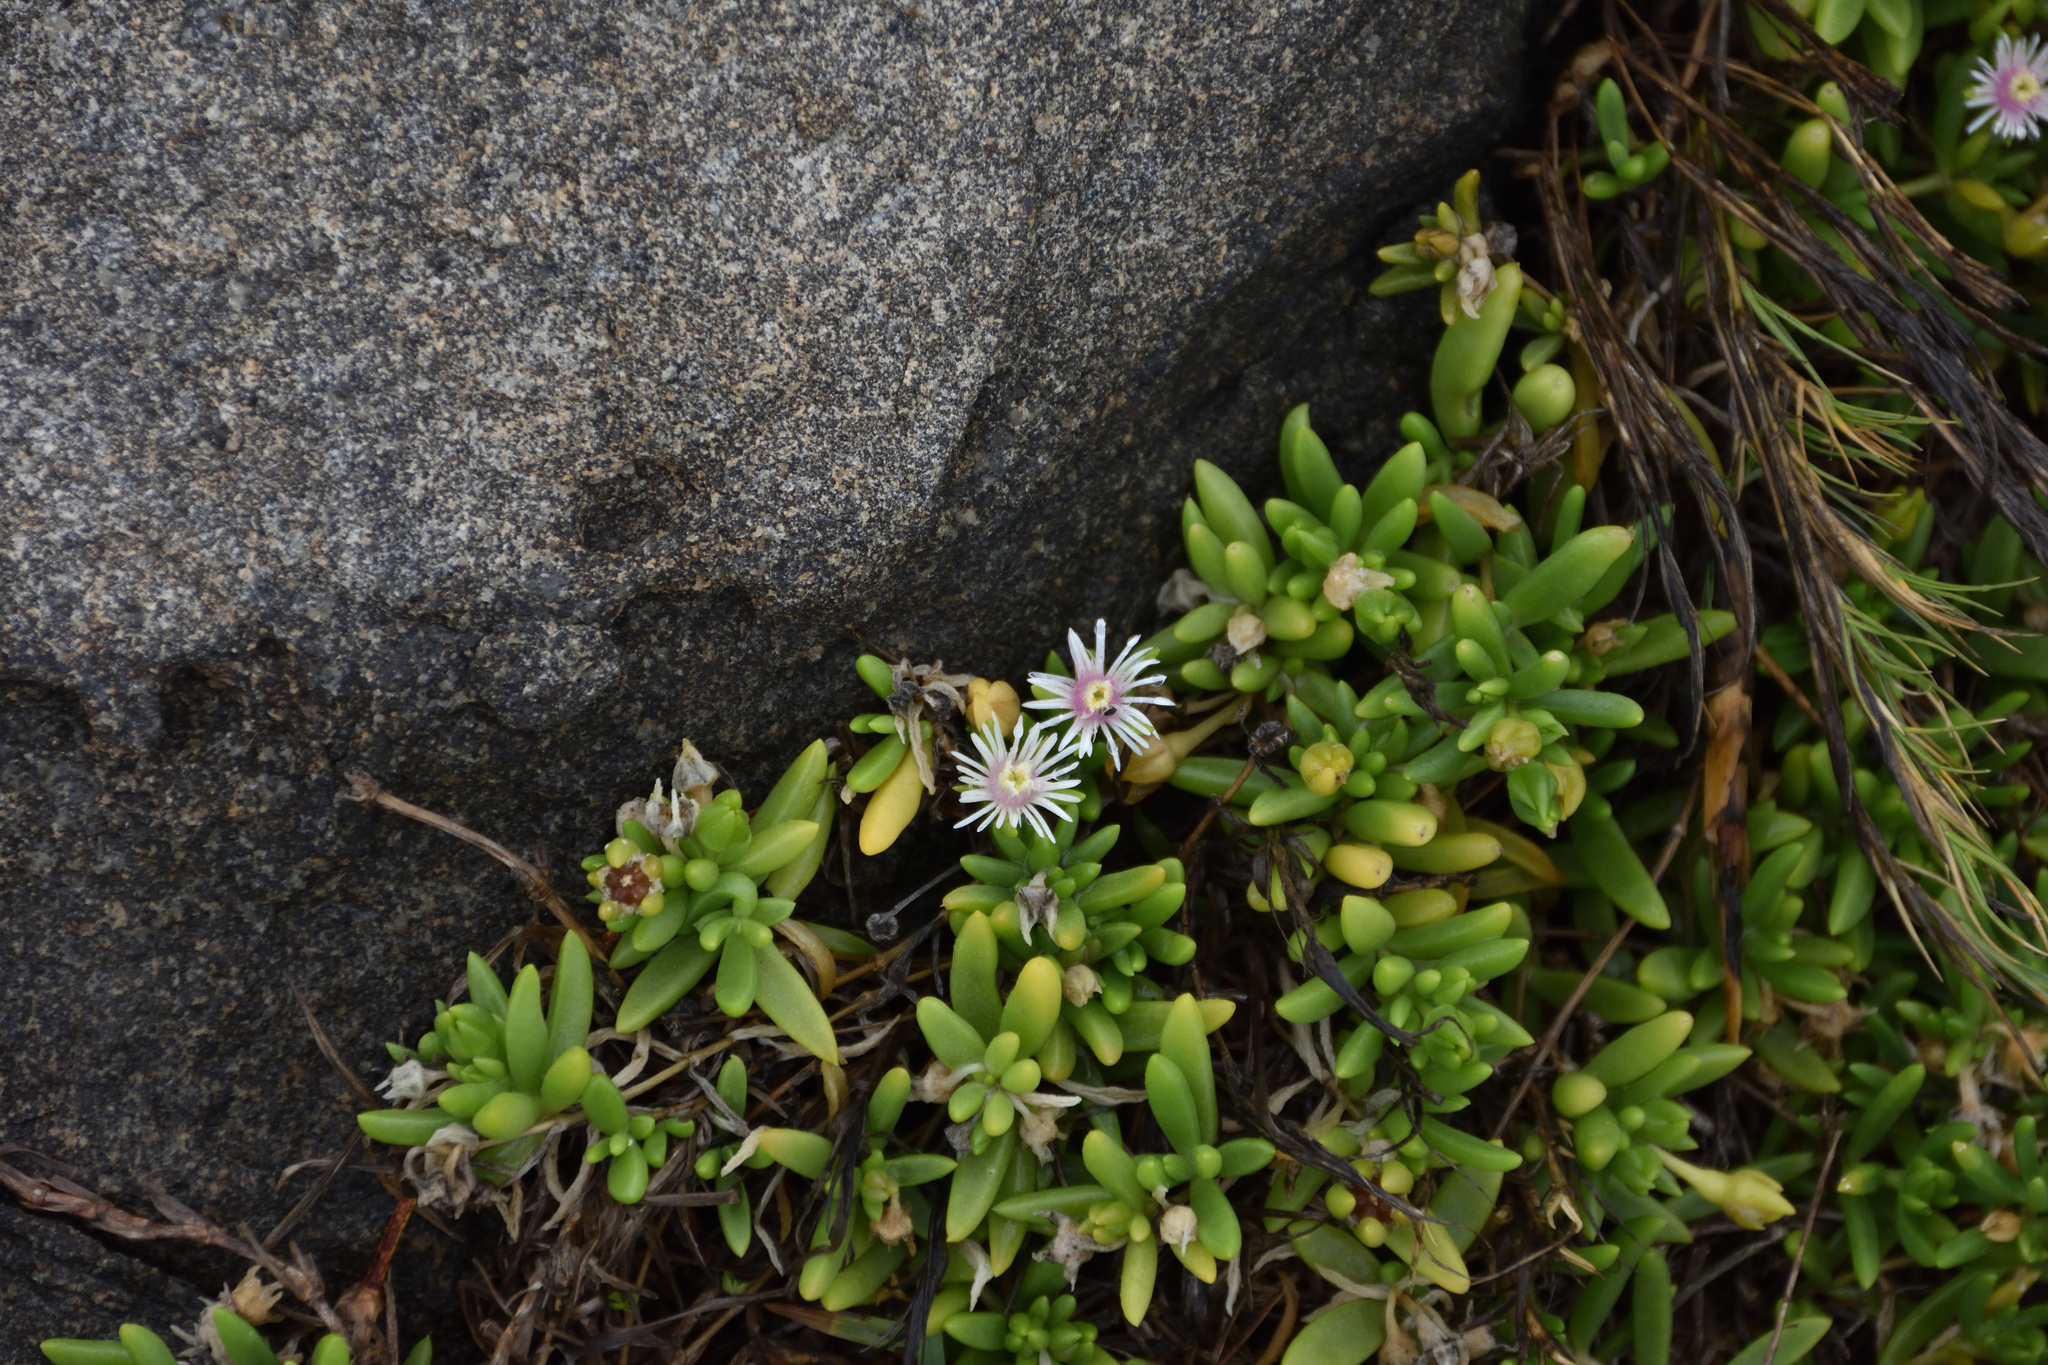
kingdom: Plantae
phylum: Tracheophyta
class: Magnoliopsida
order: Caryophyllales
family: Aizoaceae
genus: Delosperma
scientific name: Delosperma carterae
